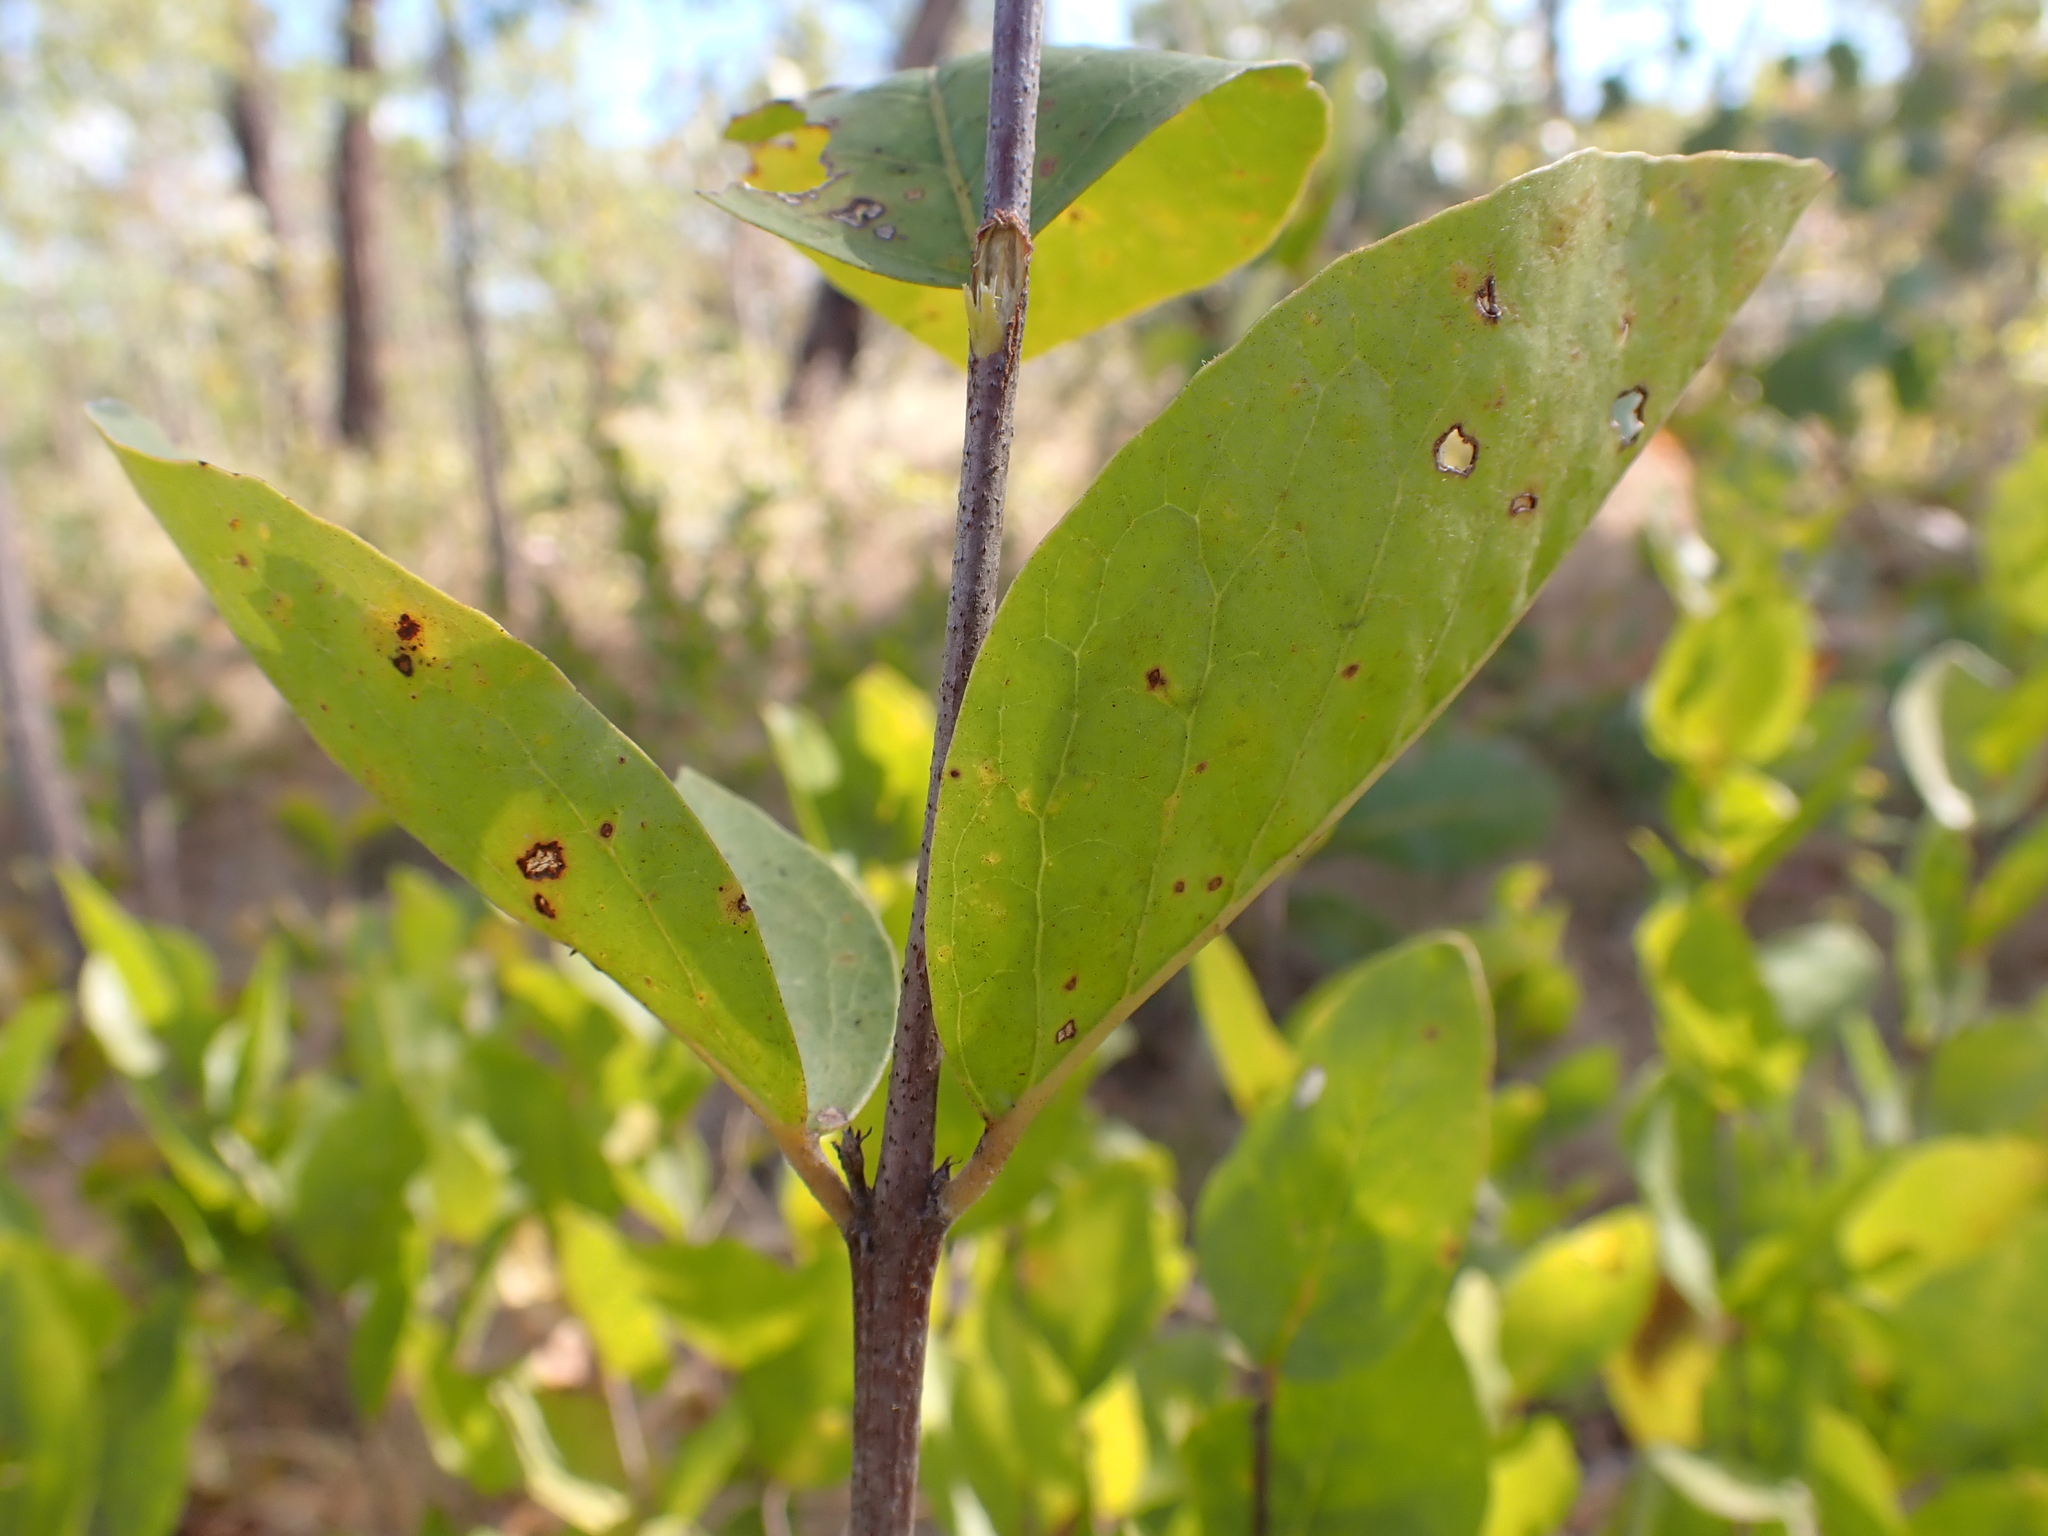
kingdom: Plantae
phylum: Tracheophyta
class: Magnoliopsida
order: Malpighiales
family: Picrodendraceae
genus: Petalostigma
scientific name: Petalostigma quadriloculare
